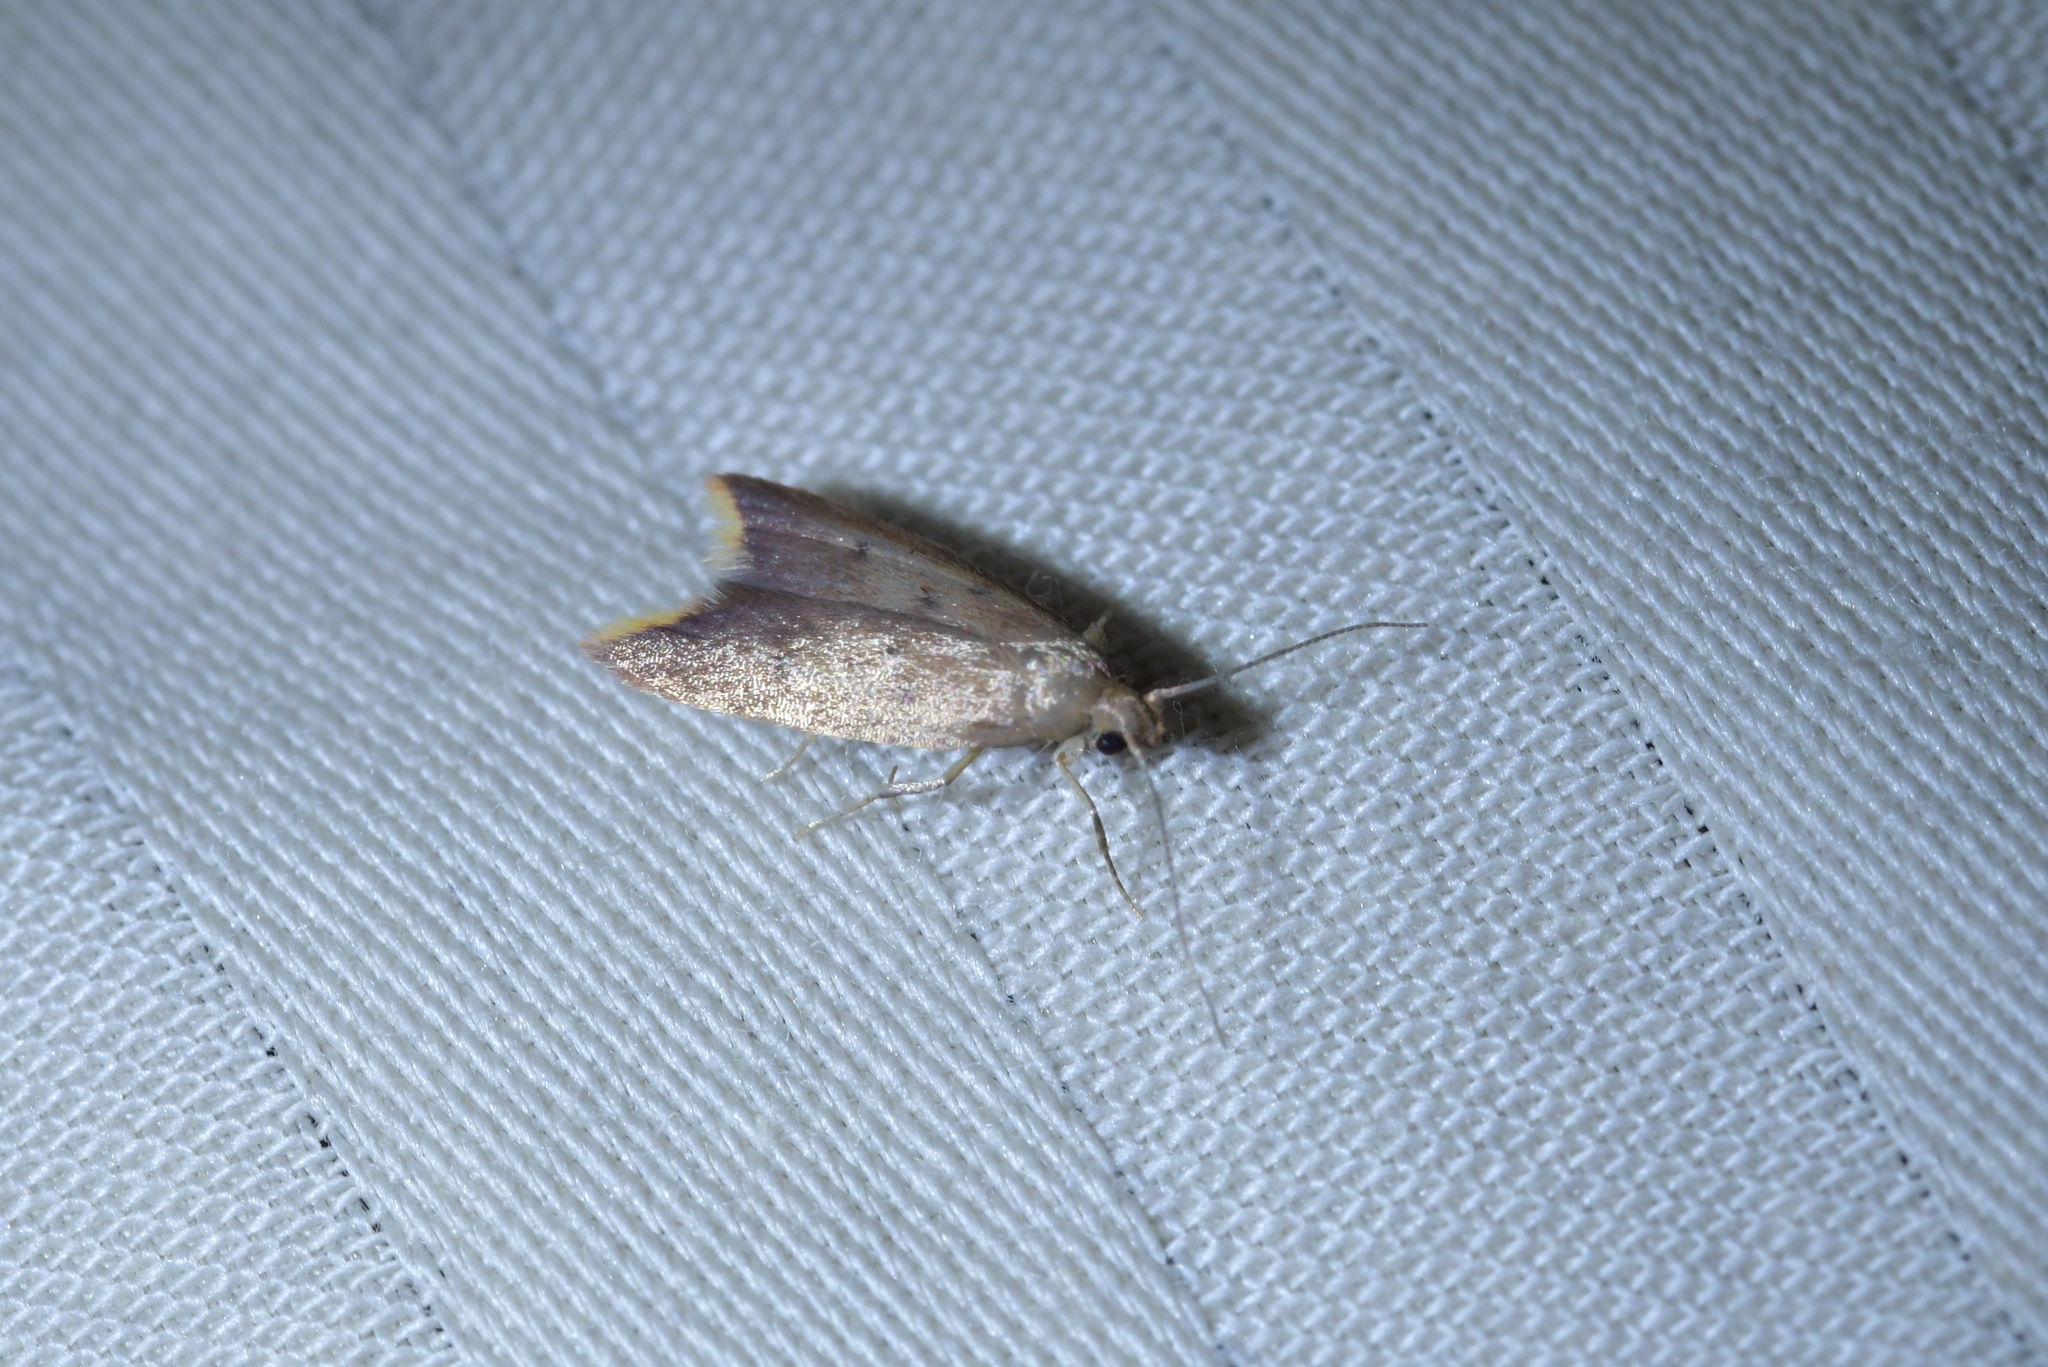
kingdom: Animalia
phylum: Arthropoda
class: Insecta
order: Lepidoptera
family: Oecophoridae
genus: Tachystola
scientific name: Tachystola acroxantha
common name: Ruddy streak
